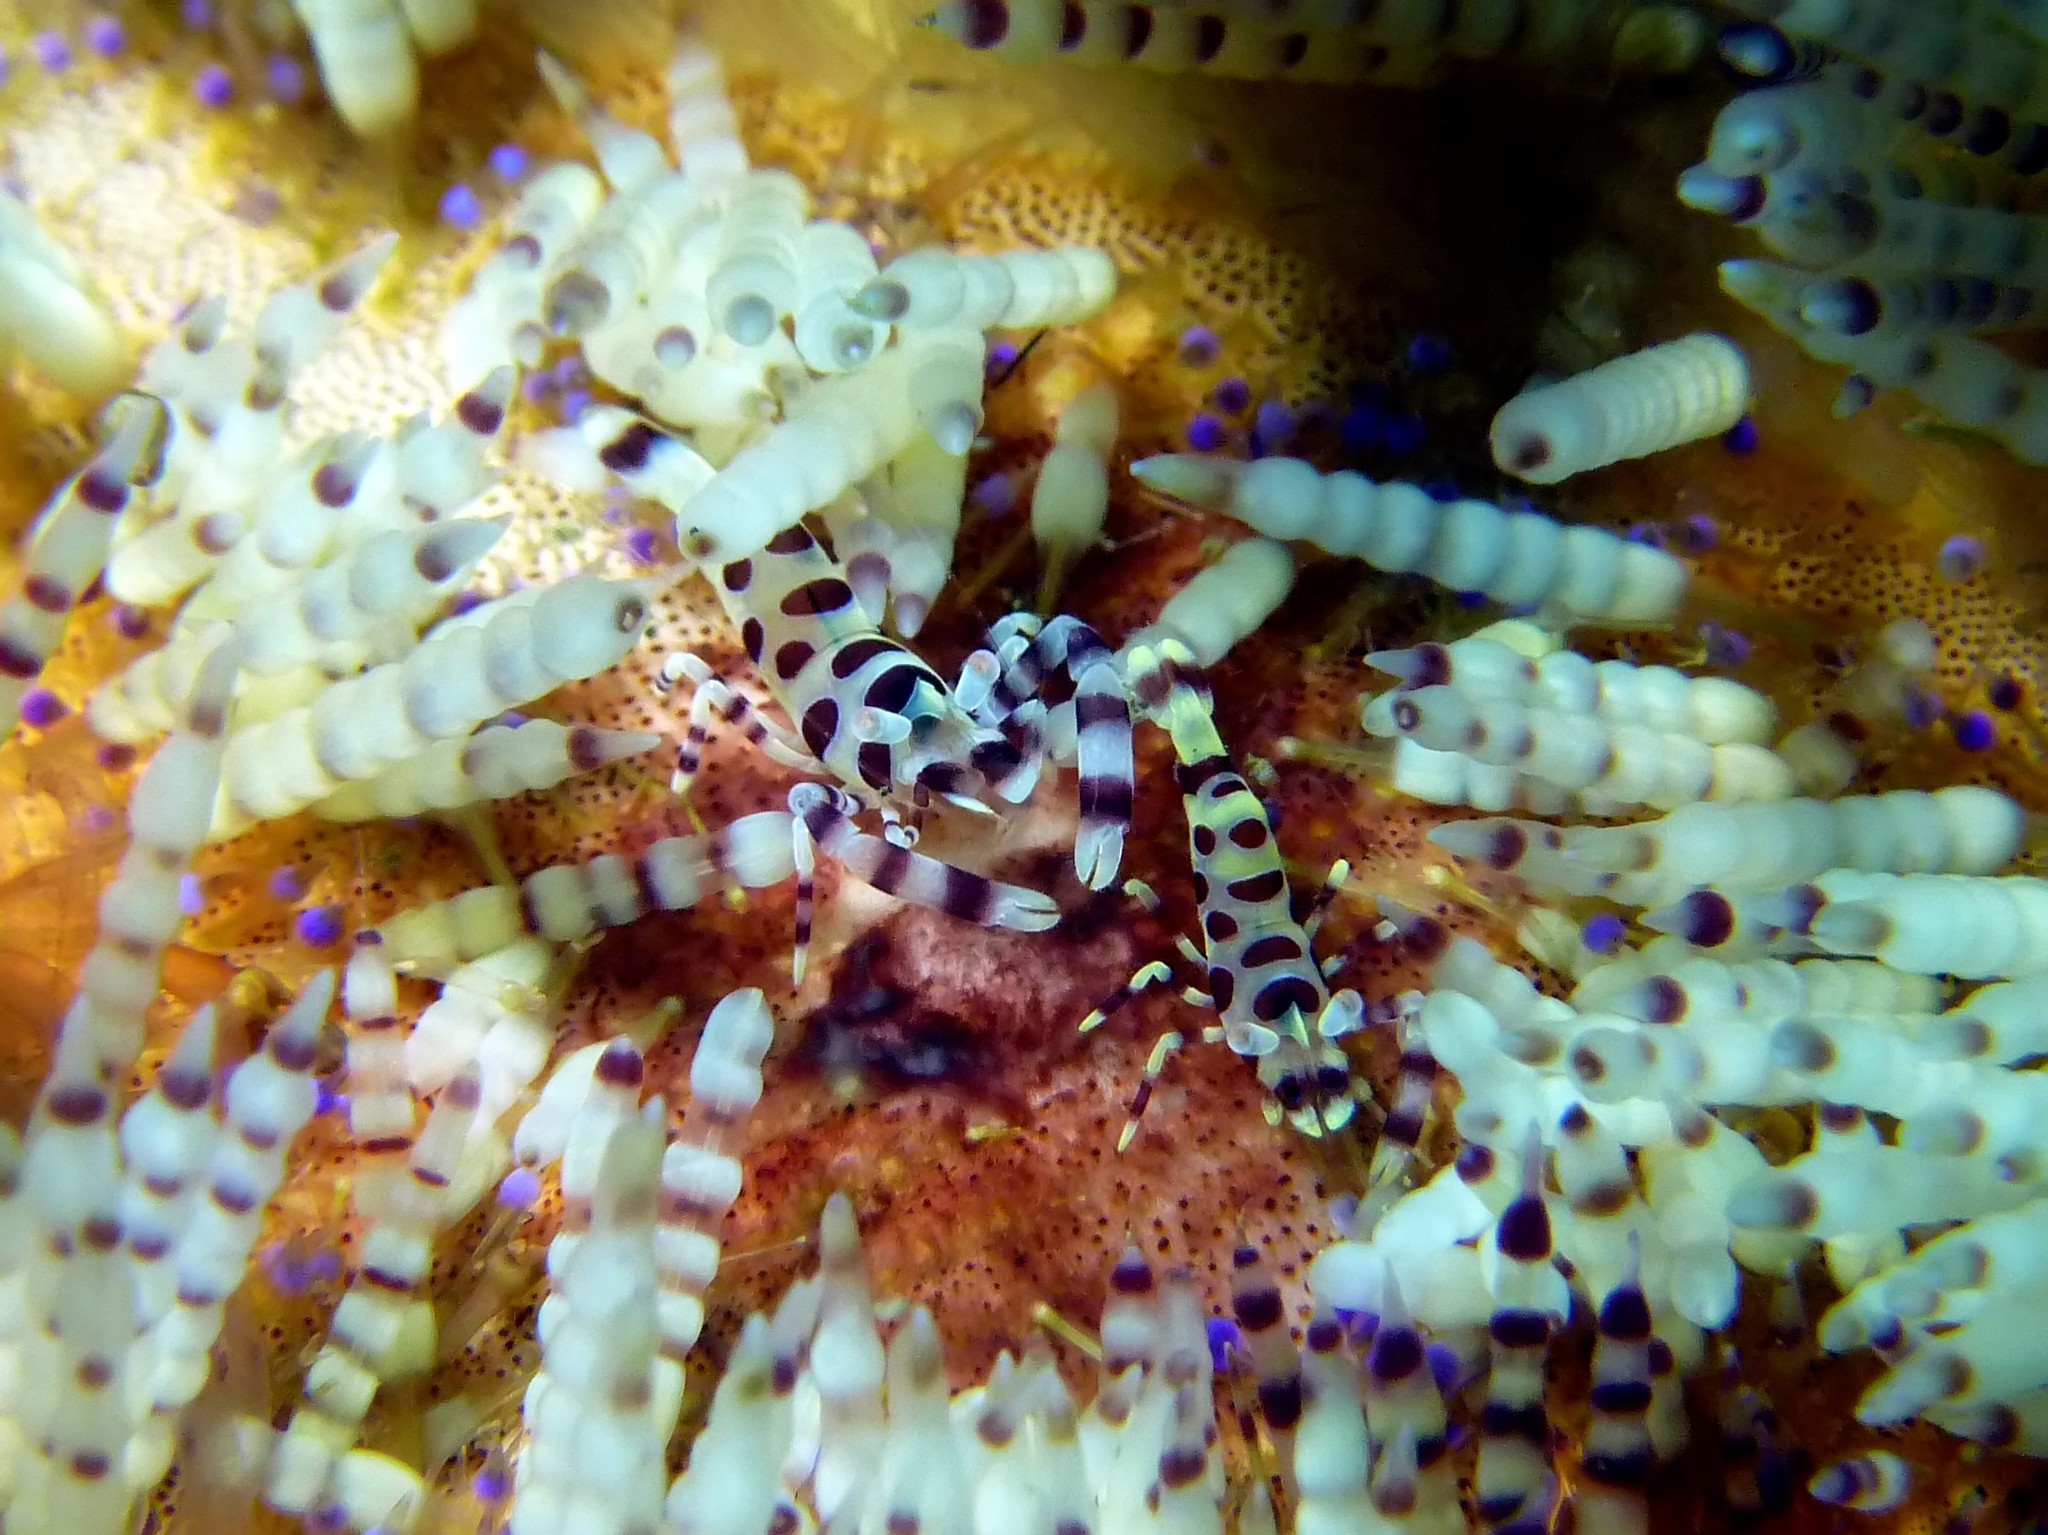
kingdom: Animalia
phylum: Arthropoda
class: Malacostraca
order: Decapoda
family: Palaemonidae
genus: Periclimenes
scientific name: Periclimenes colemani
